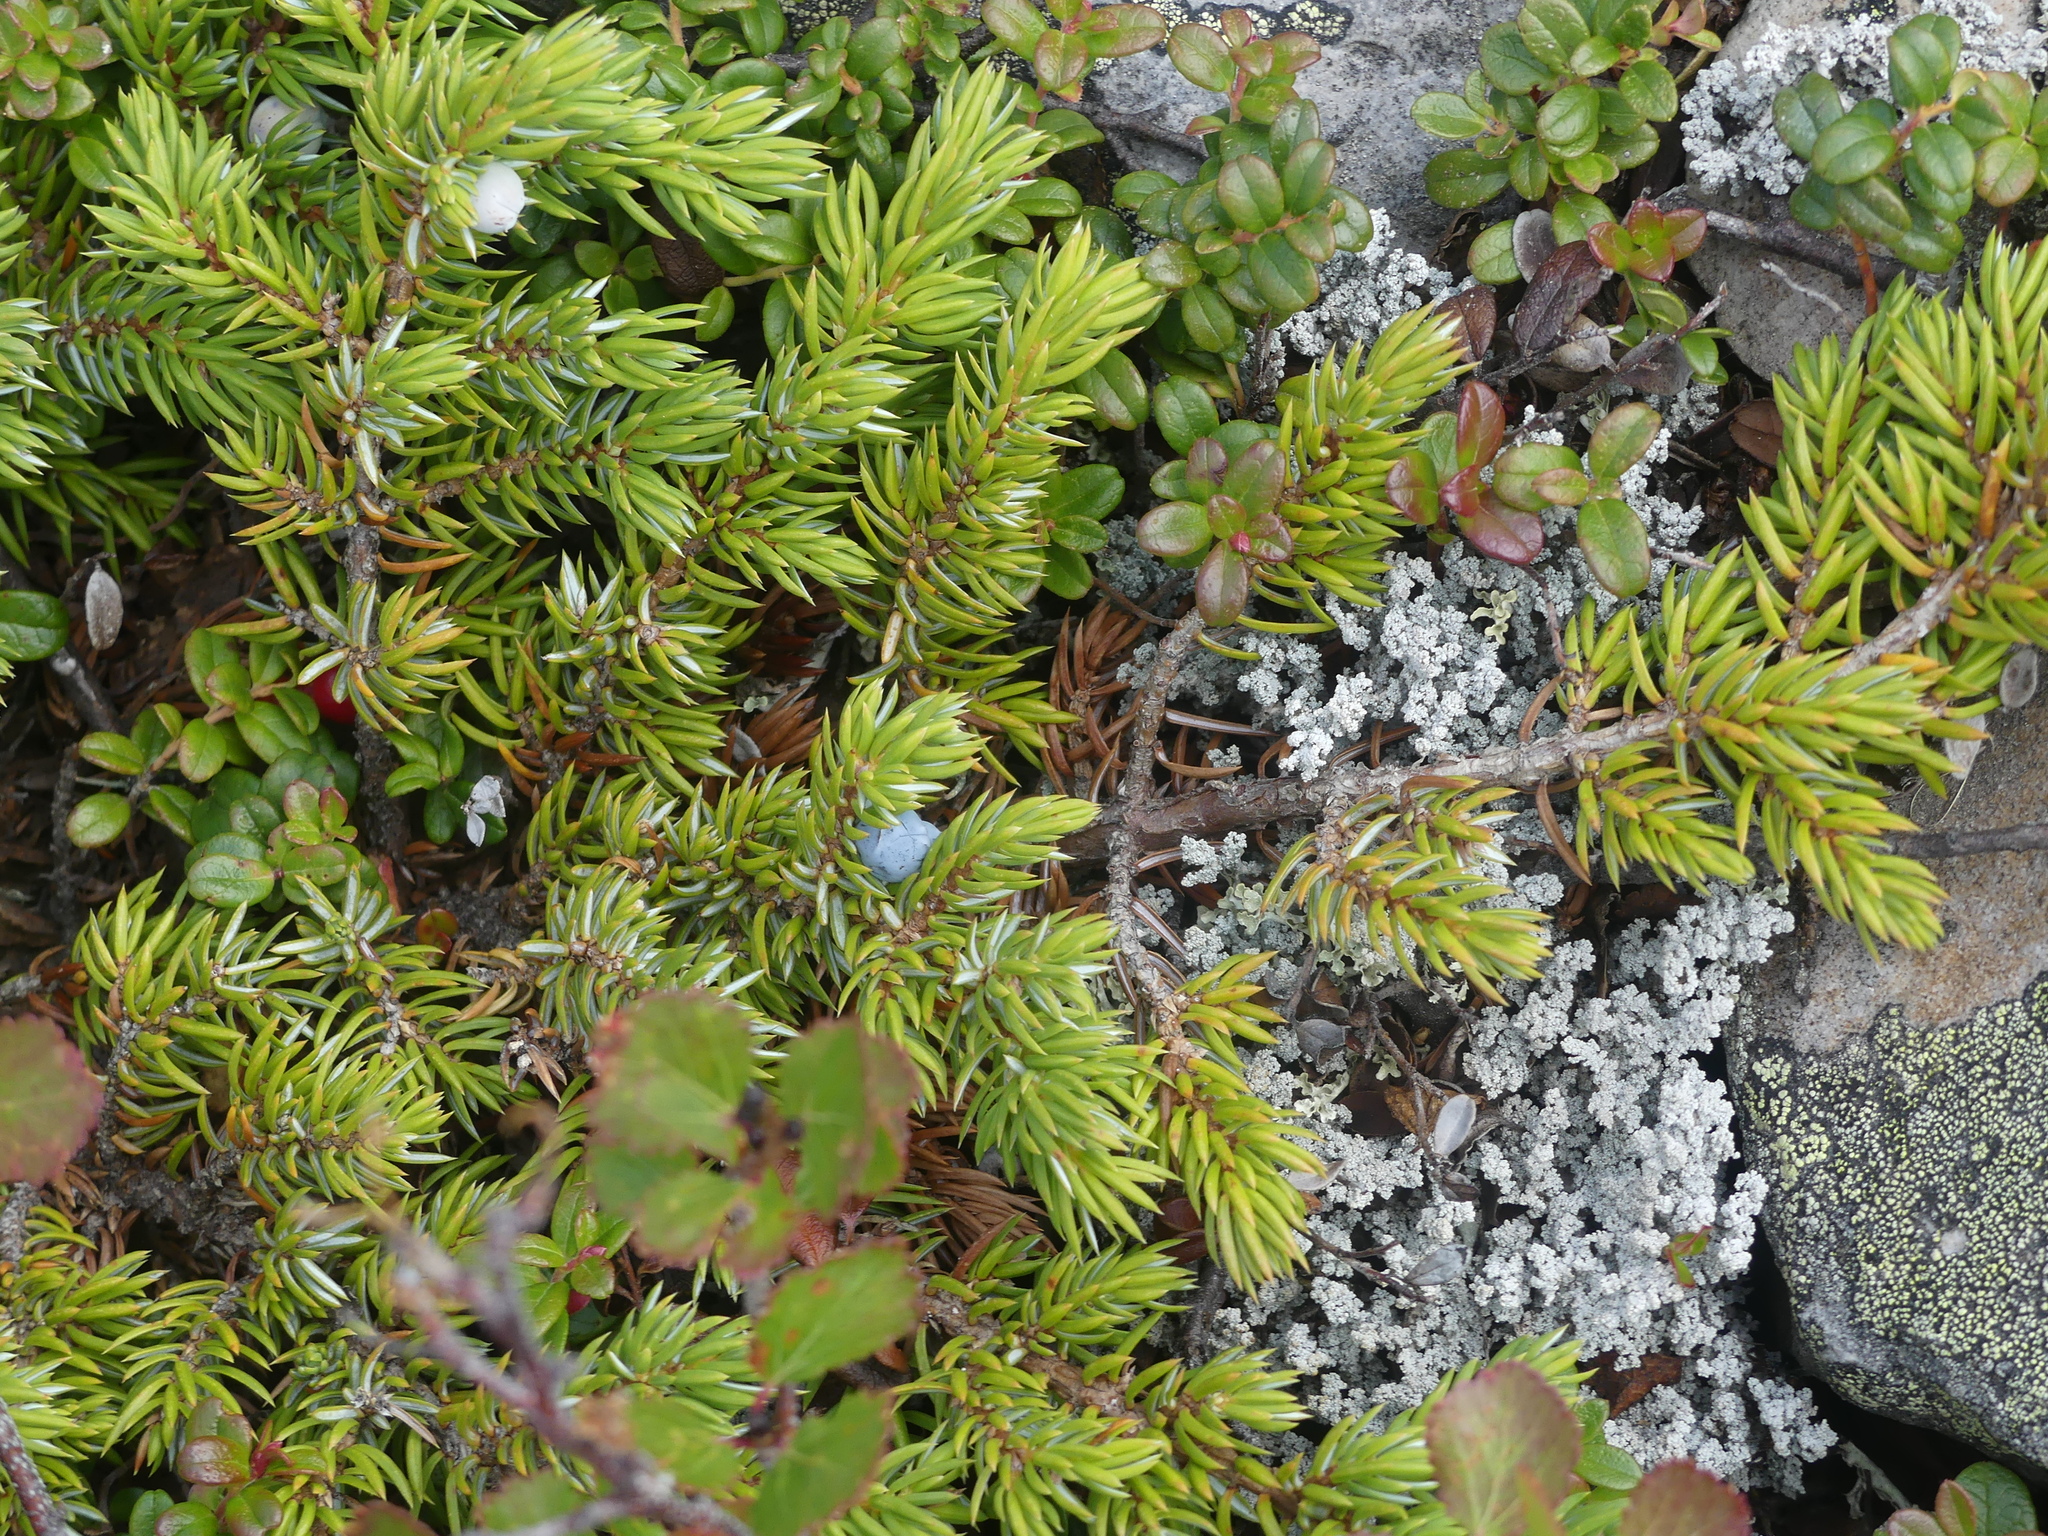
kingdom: Plantae
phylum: Tracheophyta
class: Pinopsida
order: Pinales
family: Cupressaceae
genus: Juniperus
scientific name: Juniperus communis
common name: Common juniper
